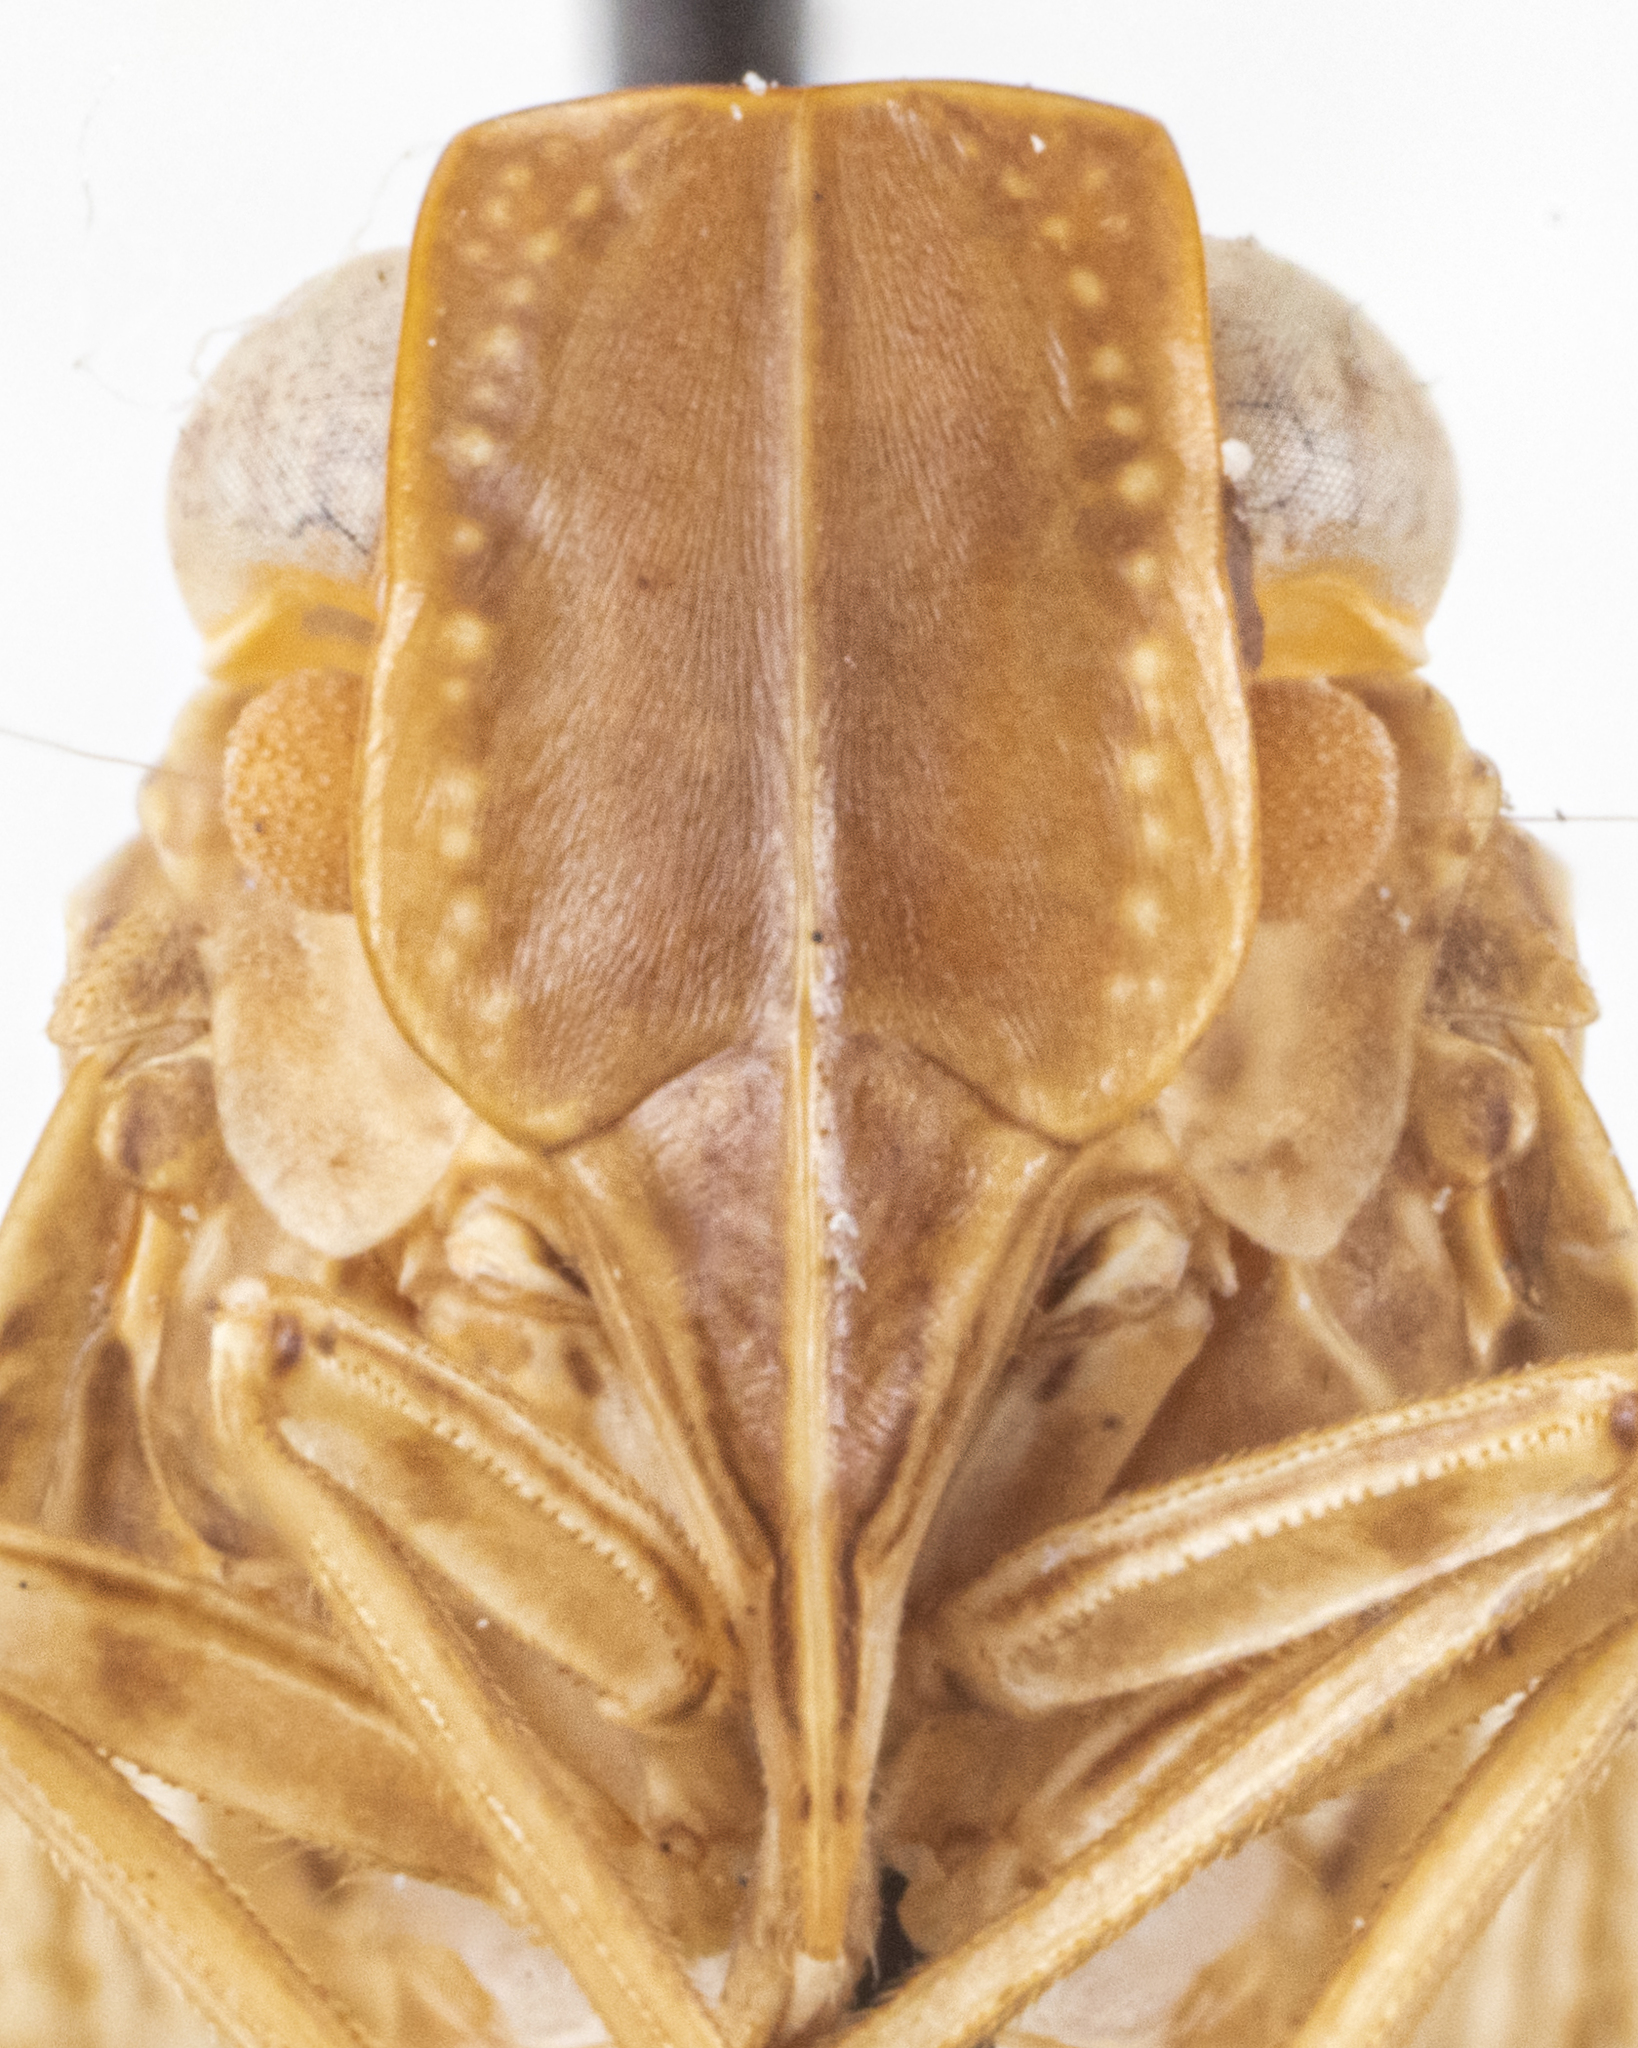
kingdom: Animalia
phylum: Arthropoda
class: Insecta
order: Hemiptera
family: Nogodinidae
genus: Bladina
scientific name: Bladina fowleri
